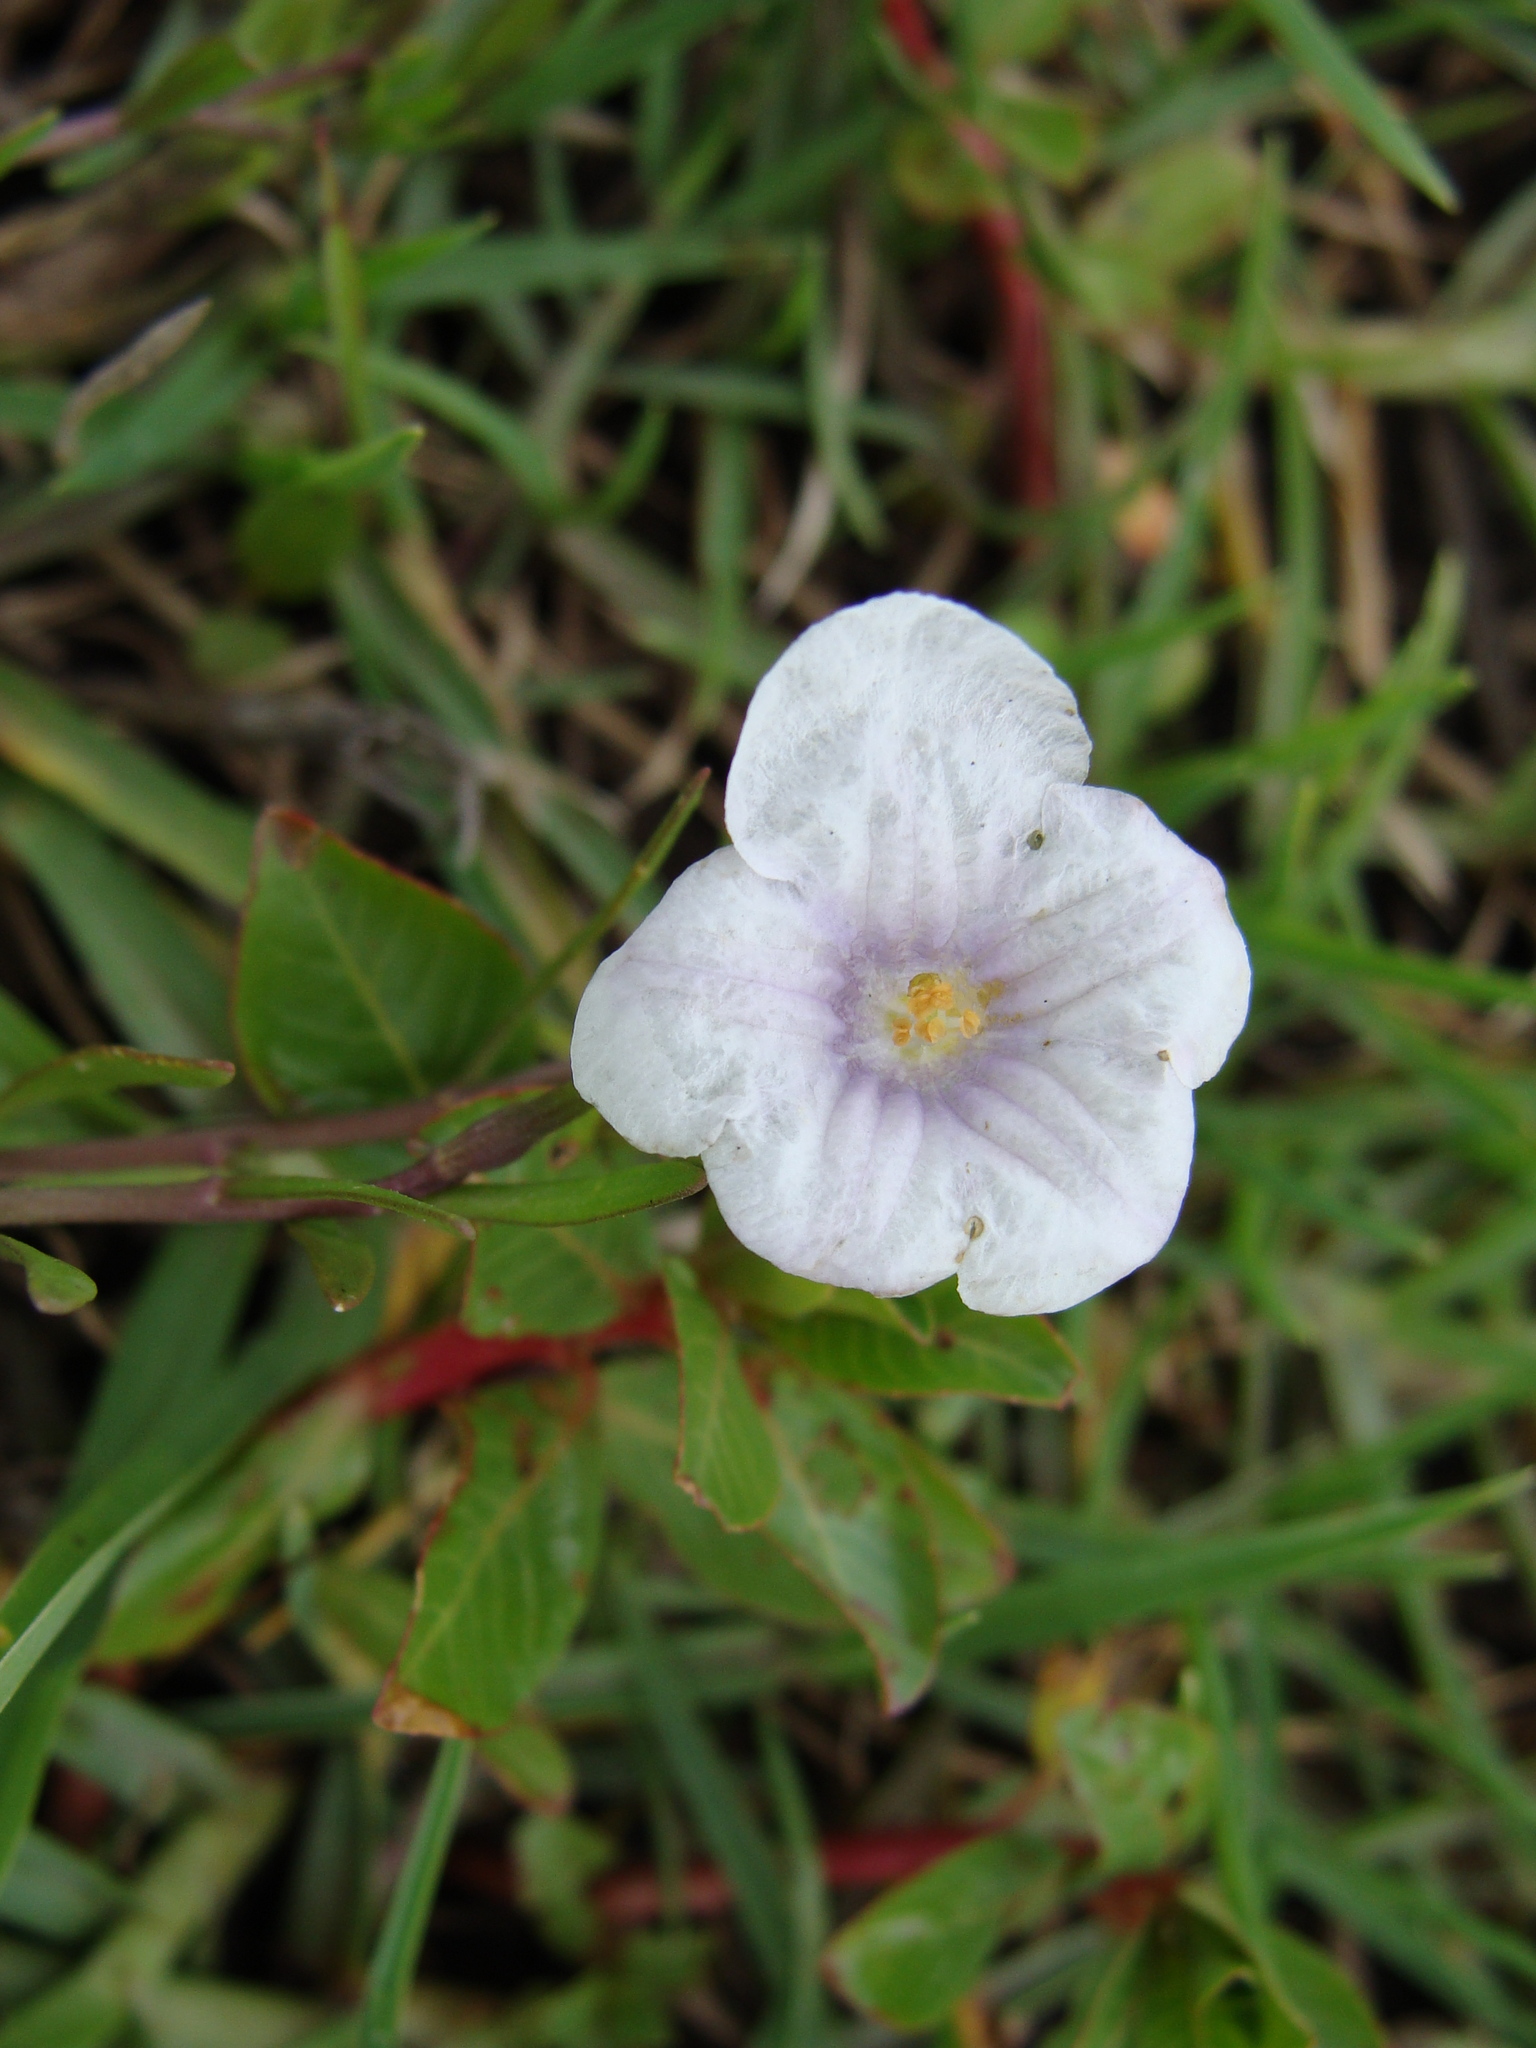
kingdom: Plantae
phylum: Tracheophyta
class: Magnoliopsida
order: Solanales
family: Solanaceae
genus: Salpiglossis
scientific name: Salpiglossis erecta
